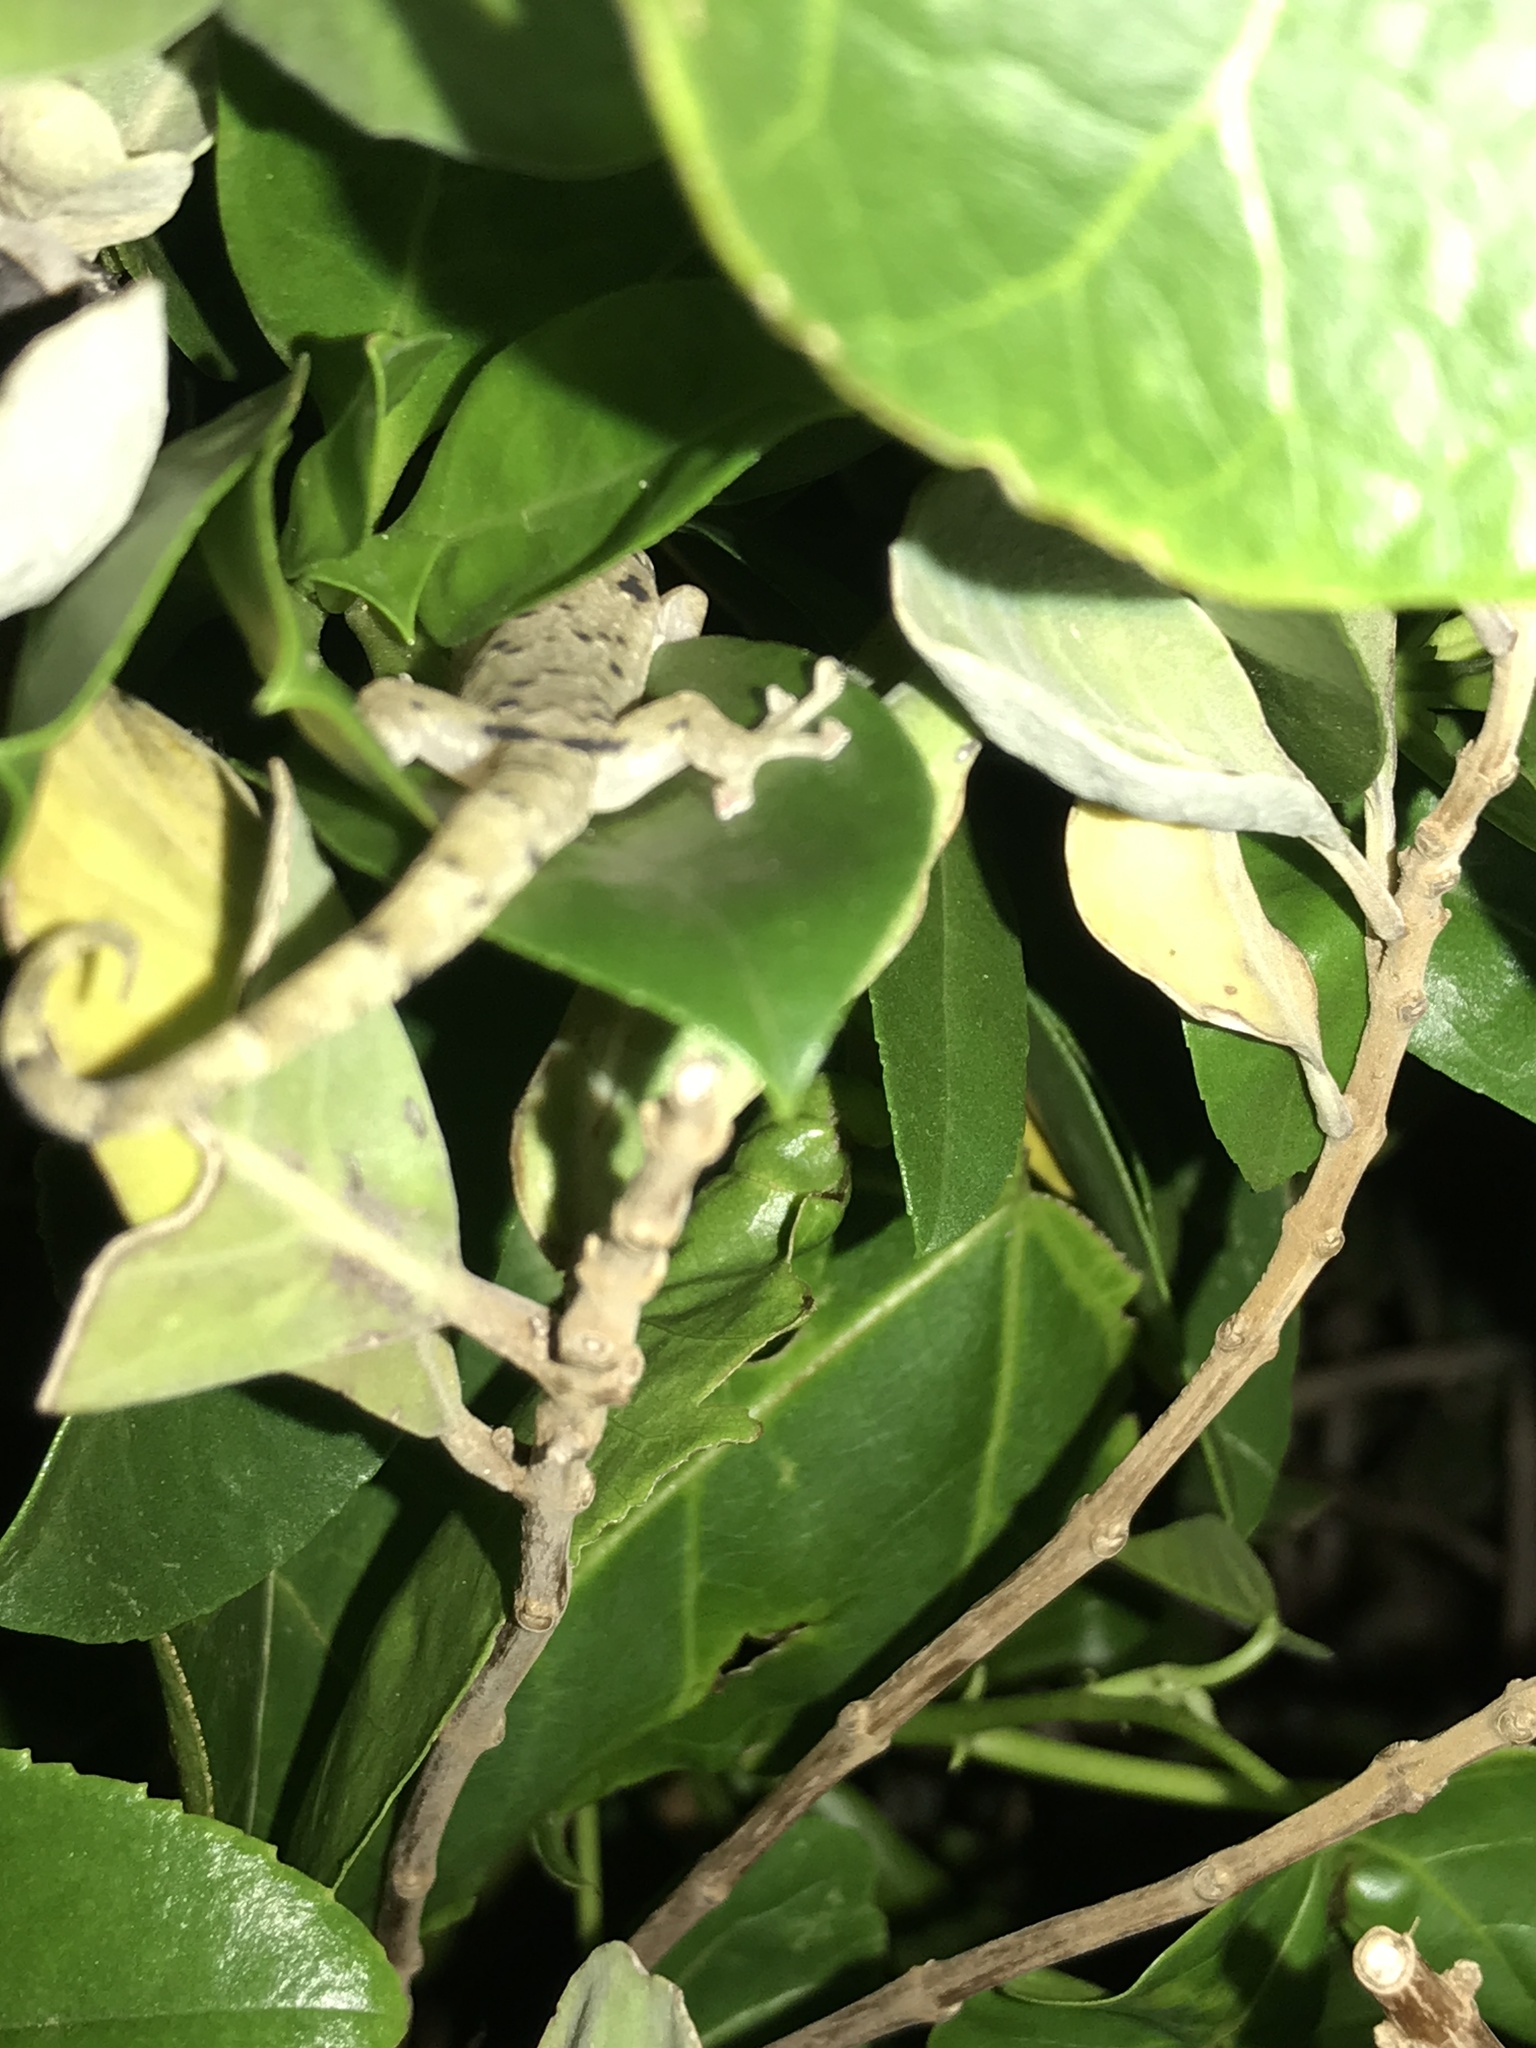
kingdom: Animalia
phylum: Chordata
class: Squamata
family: Gekkonidae
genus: Lepidodactylus
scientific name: Lepidodactylus lugubris
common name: Mourning gecko
